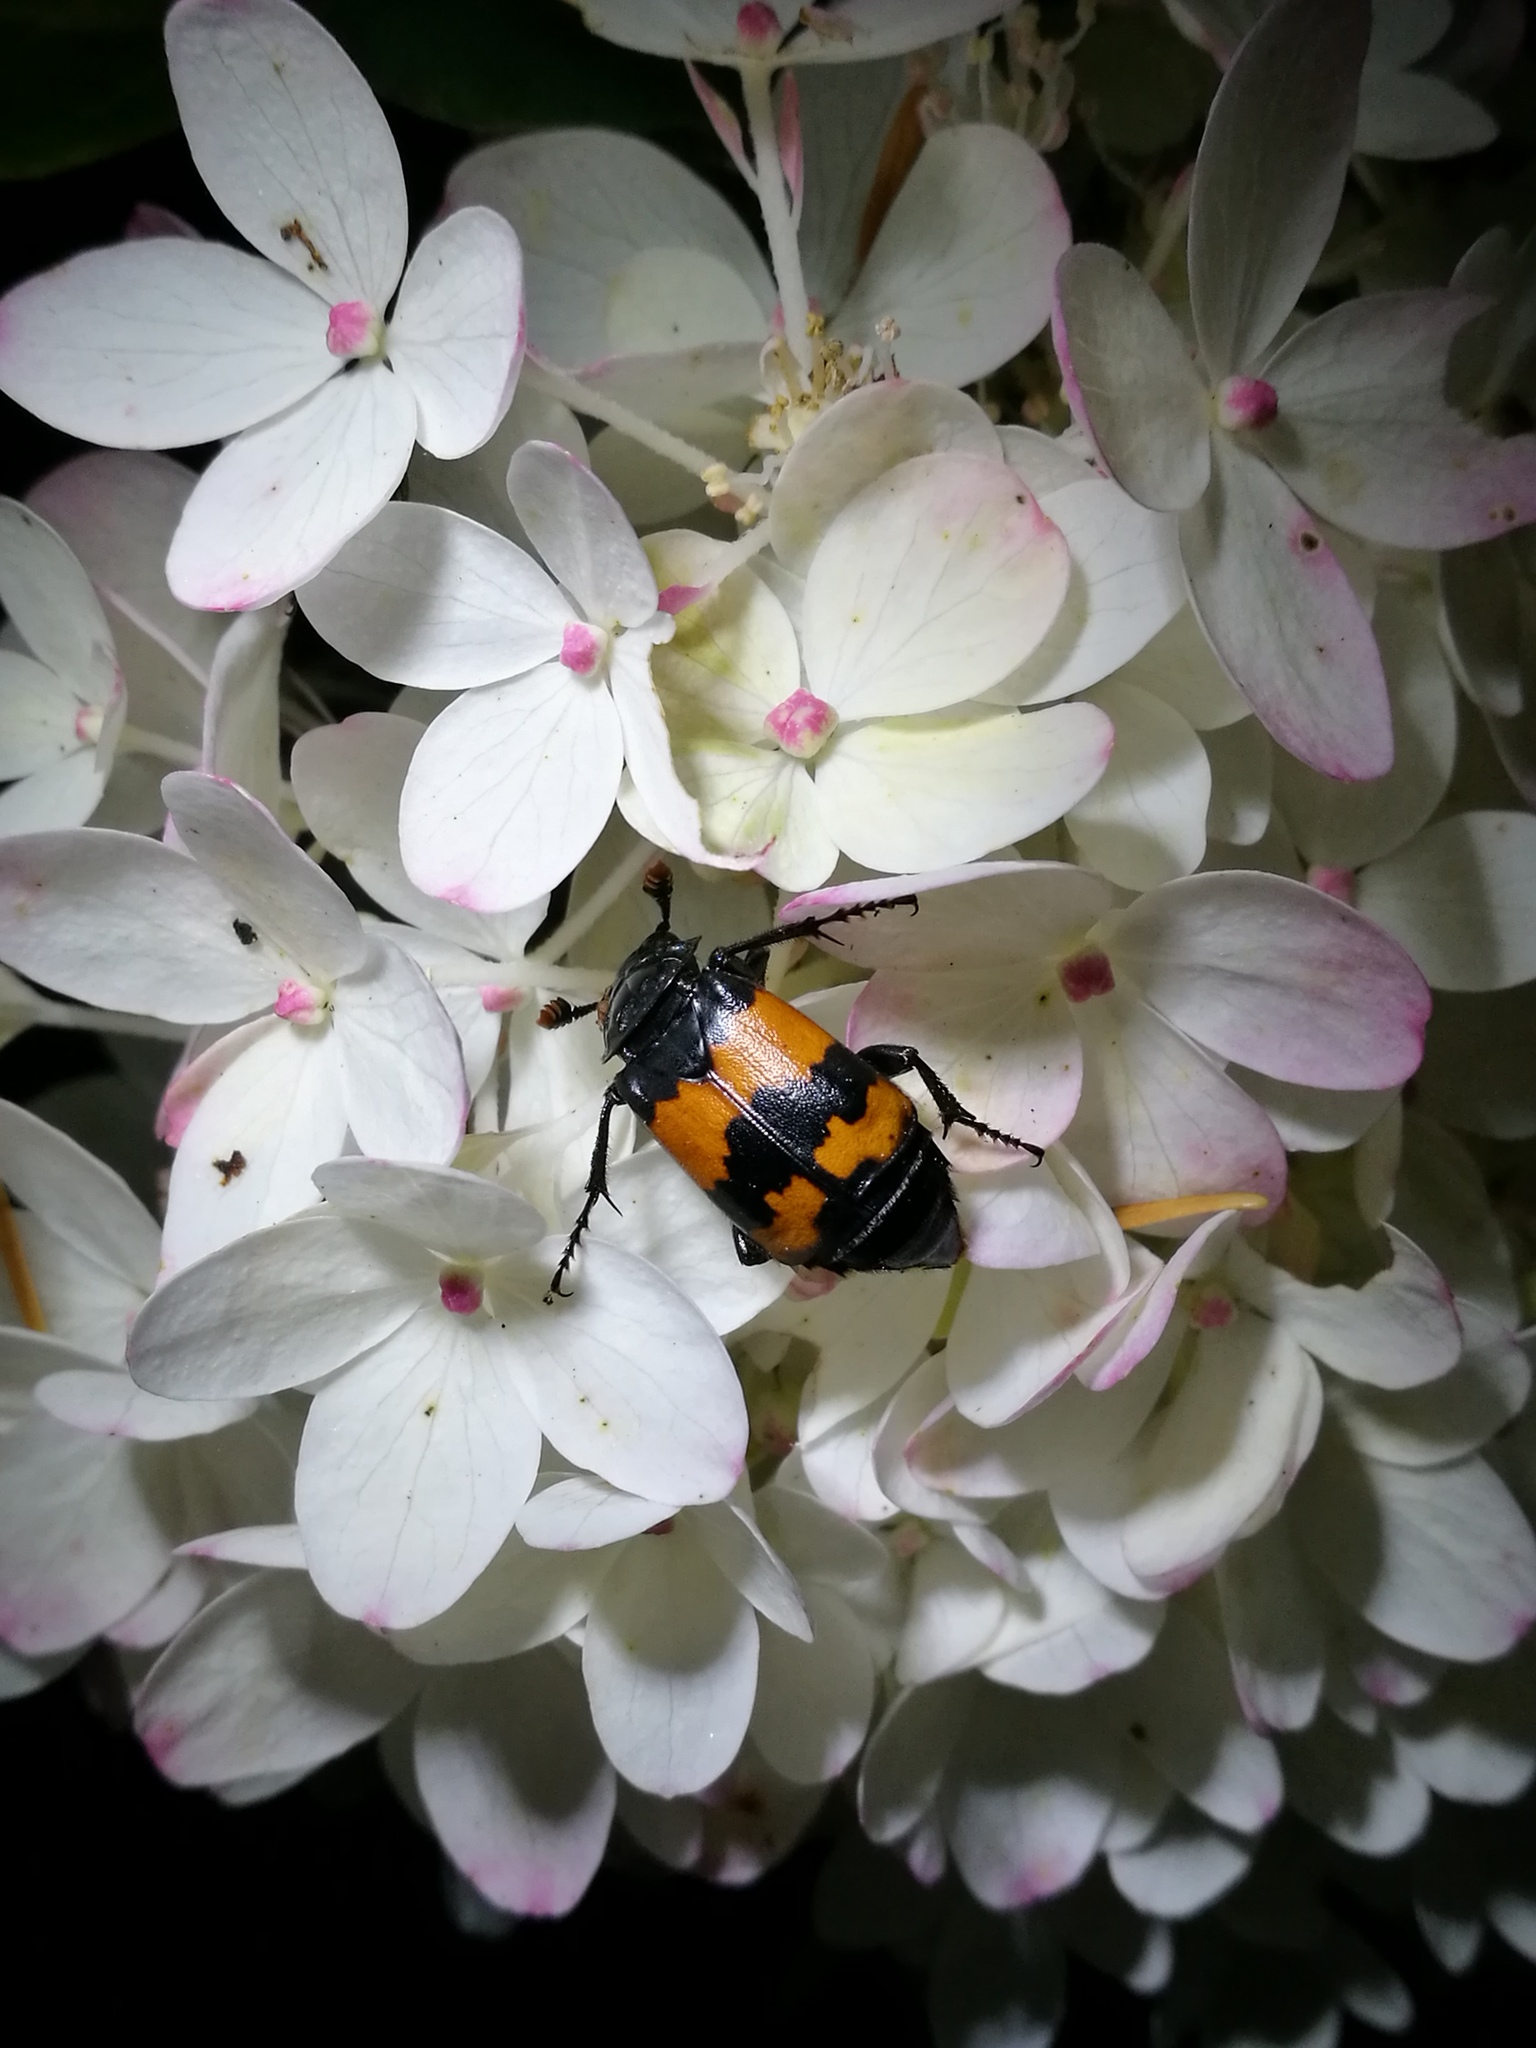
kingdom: Animalia
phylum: Arthropoda
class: Insecta
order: Coleoptera
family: Staphylinidae
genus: Nicrophorus
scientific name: Nicrophorus investigator
